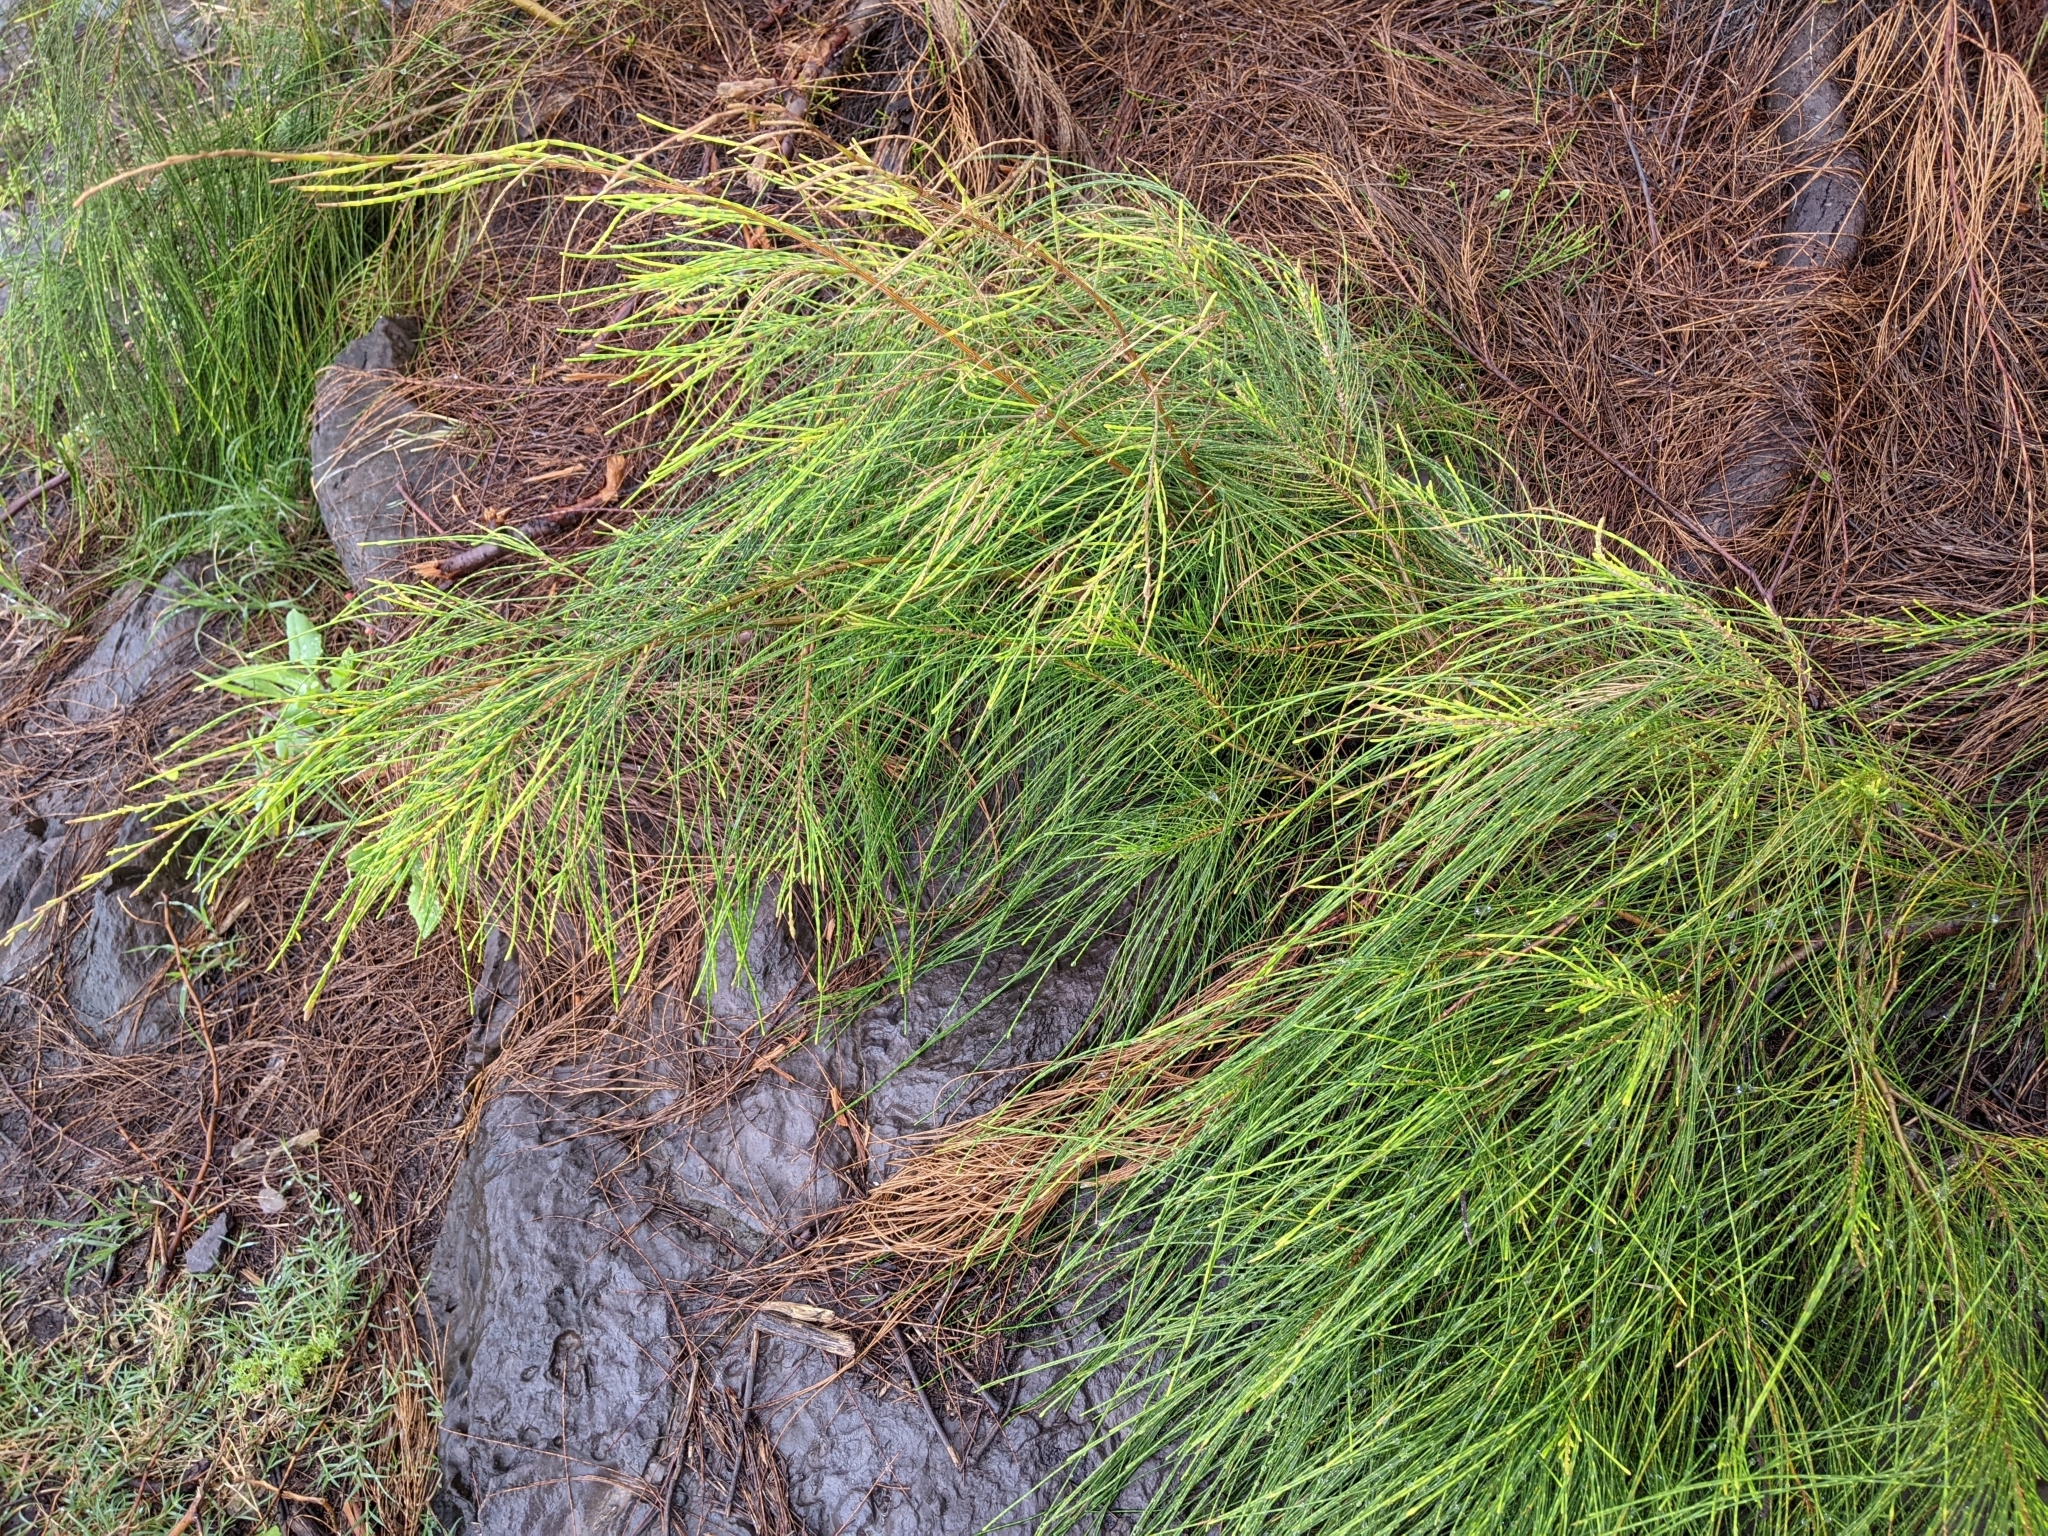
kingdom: Plantae
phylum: Tracheophyta
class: Magnoliopsida
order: Fagales
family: Casuarinaceae
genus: Casuarina
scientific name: Casuarina equisetifolia
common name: Beach sheoak
